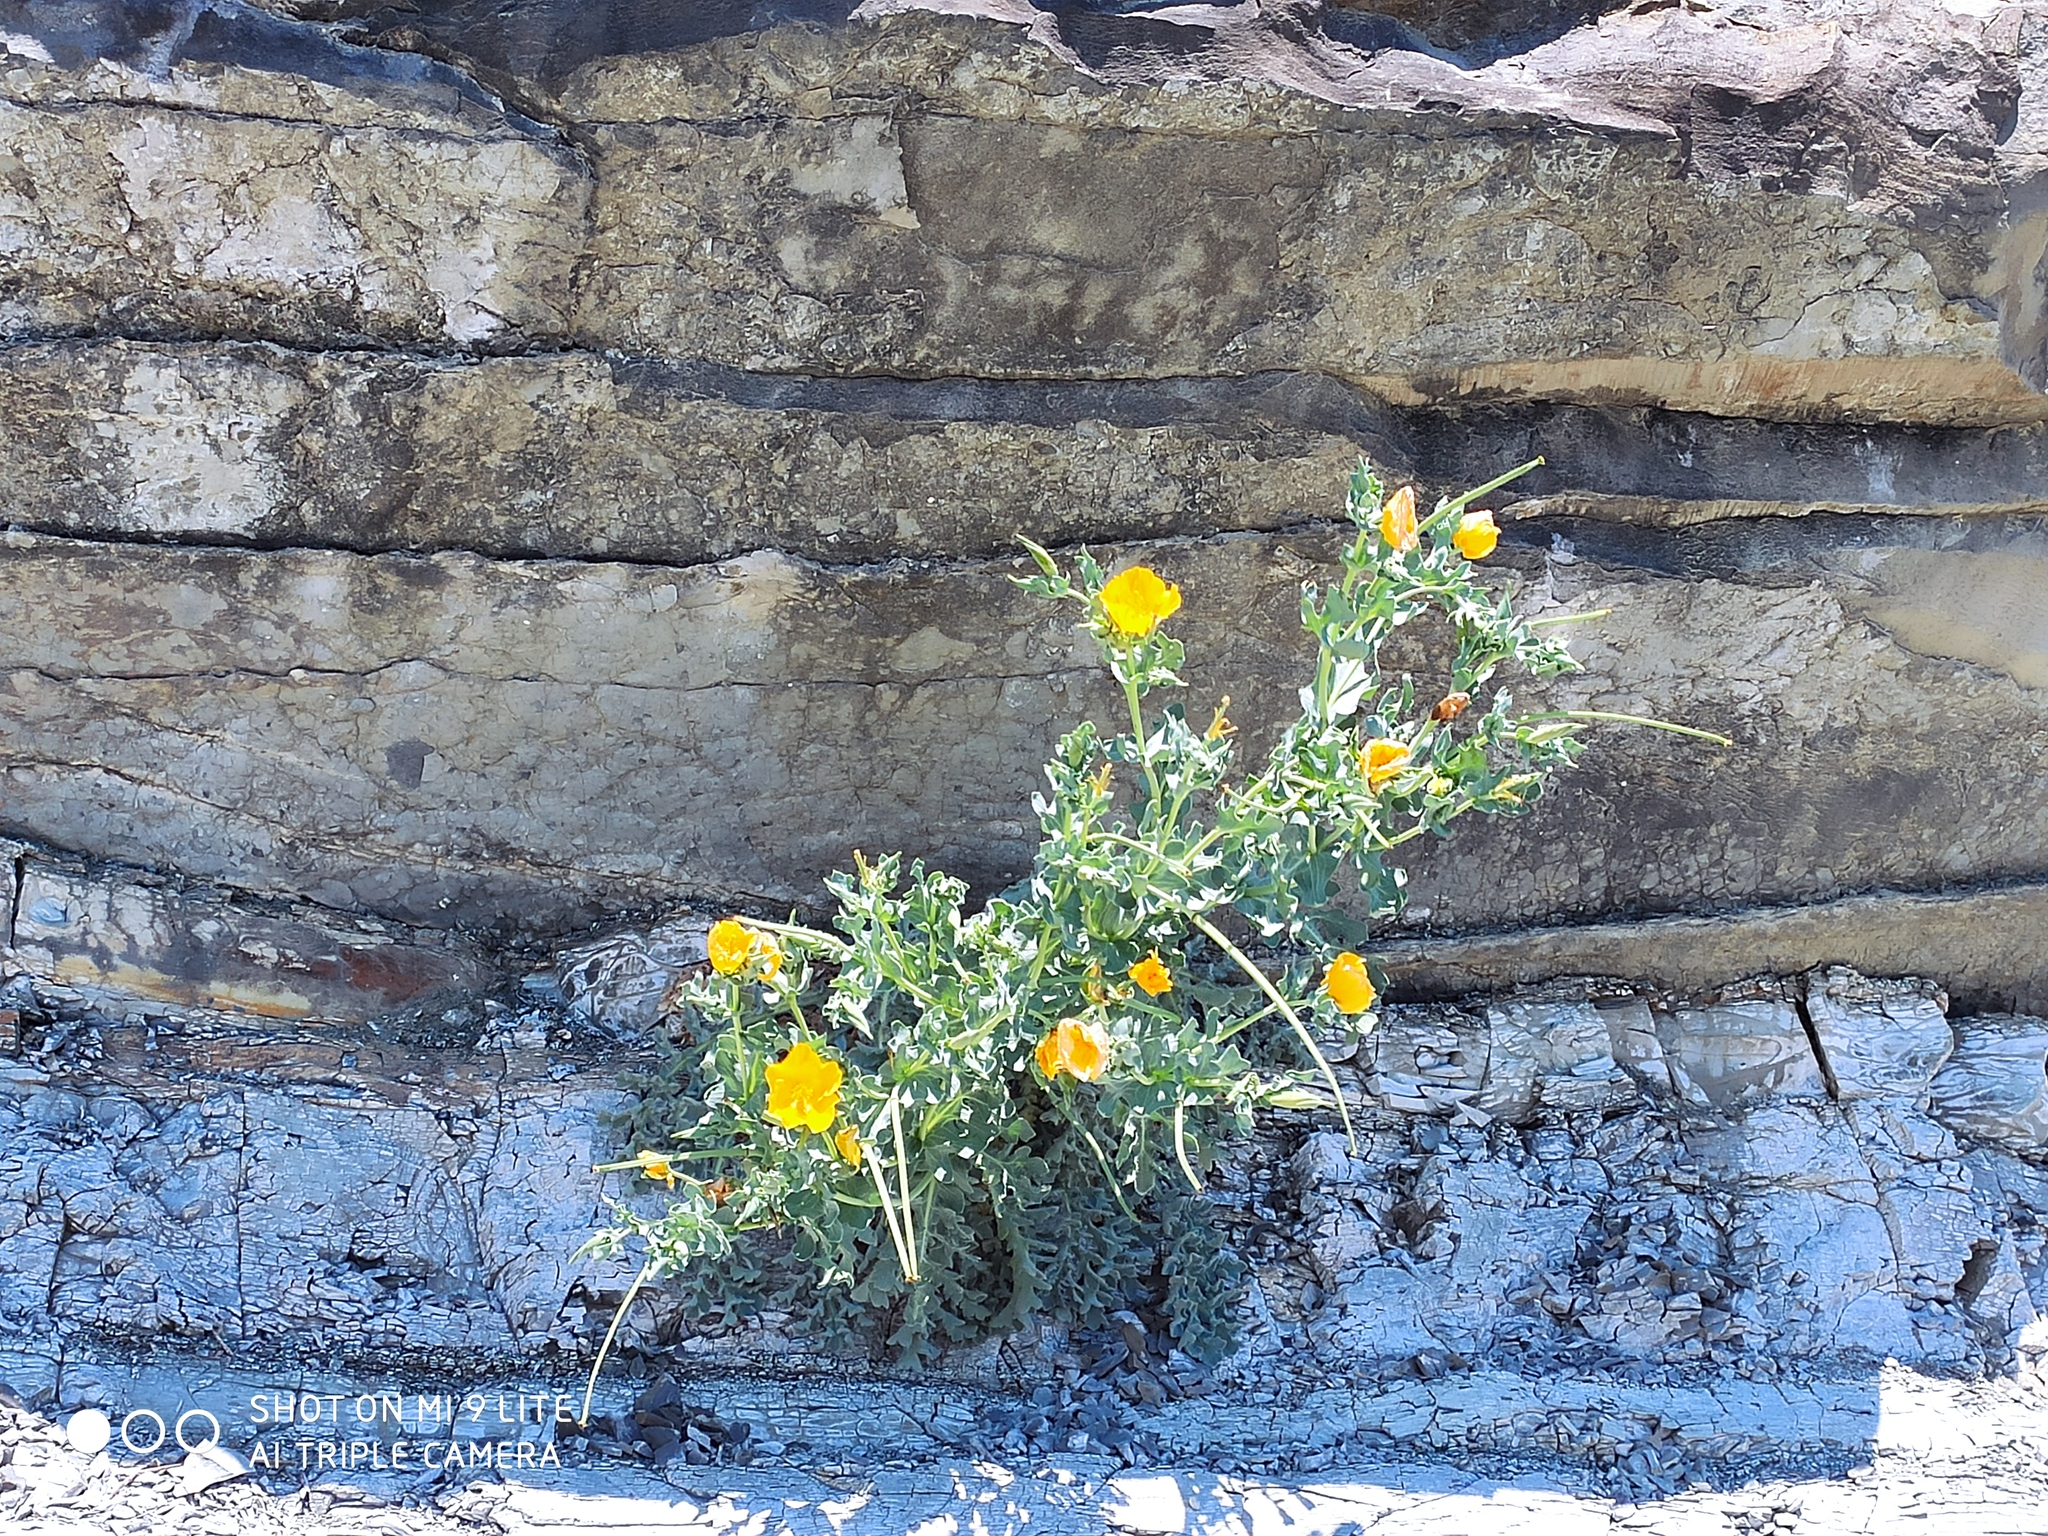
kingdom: Plantae
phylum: Tracheophyta
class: Magnoliopsida
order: Ranunculales
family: Papaveraceae
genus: Glaucium
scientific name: Glaucium flavum
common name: Yellow horned-poppy
